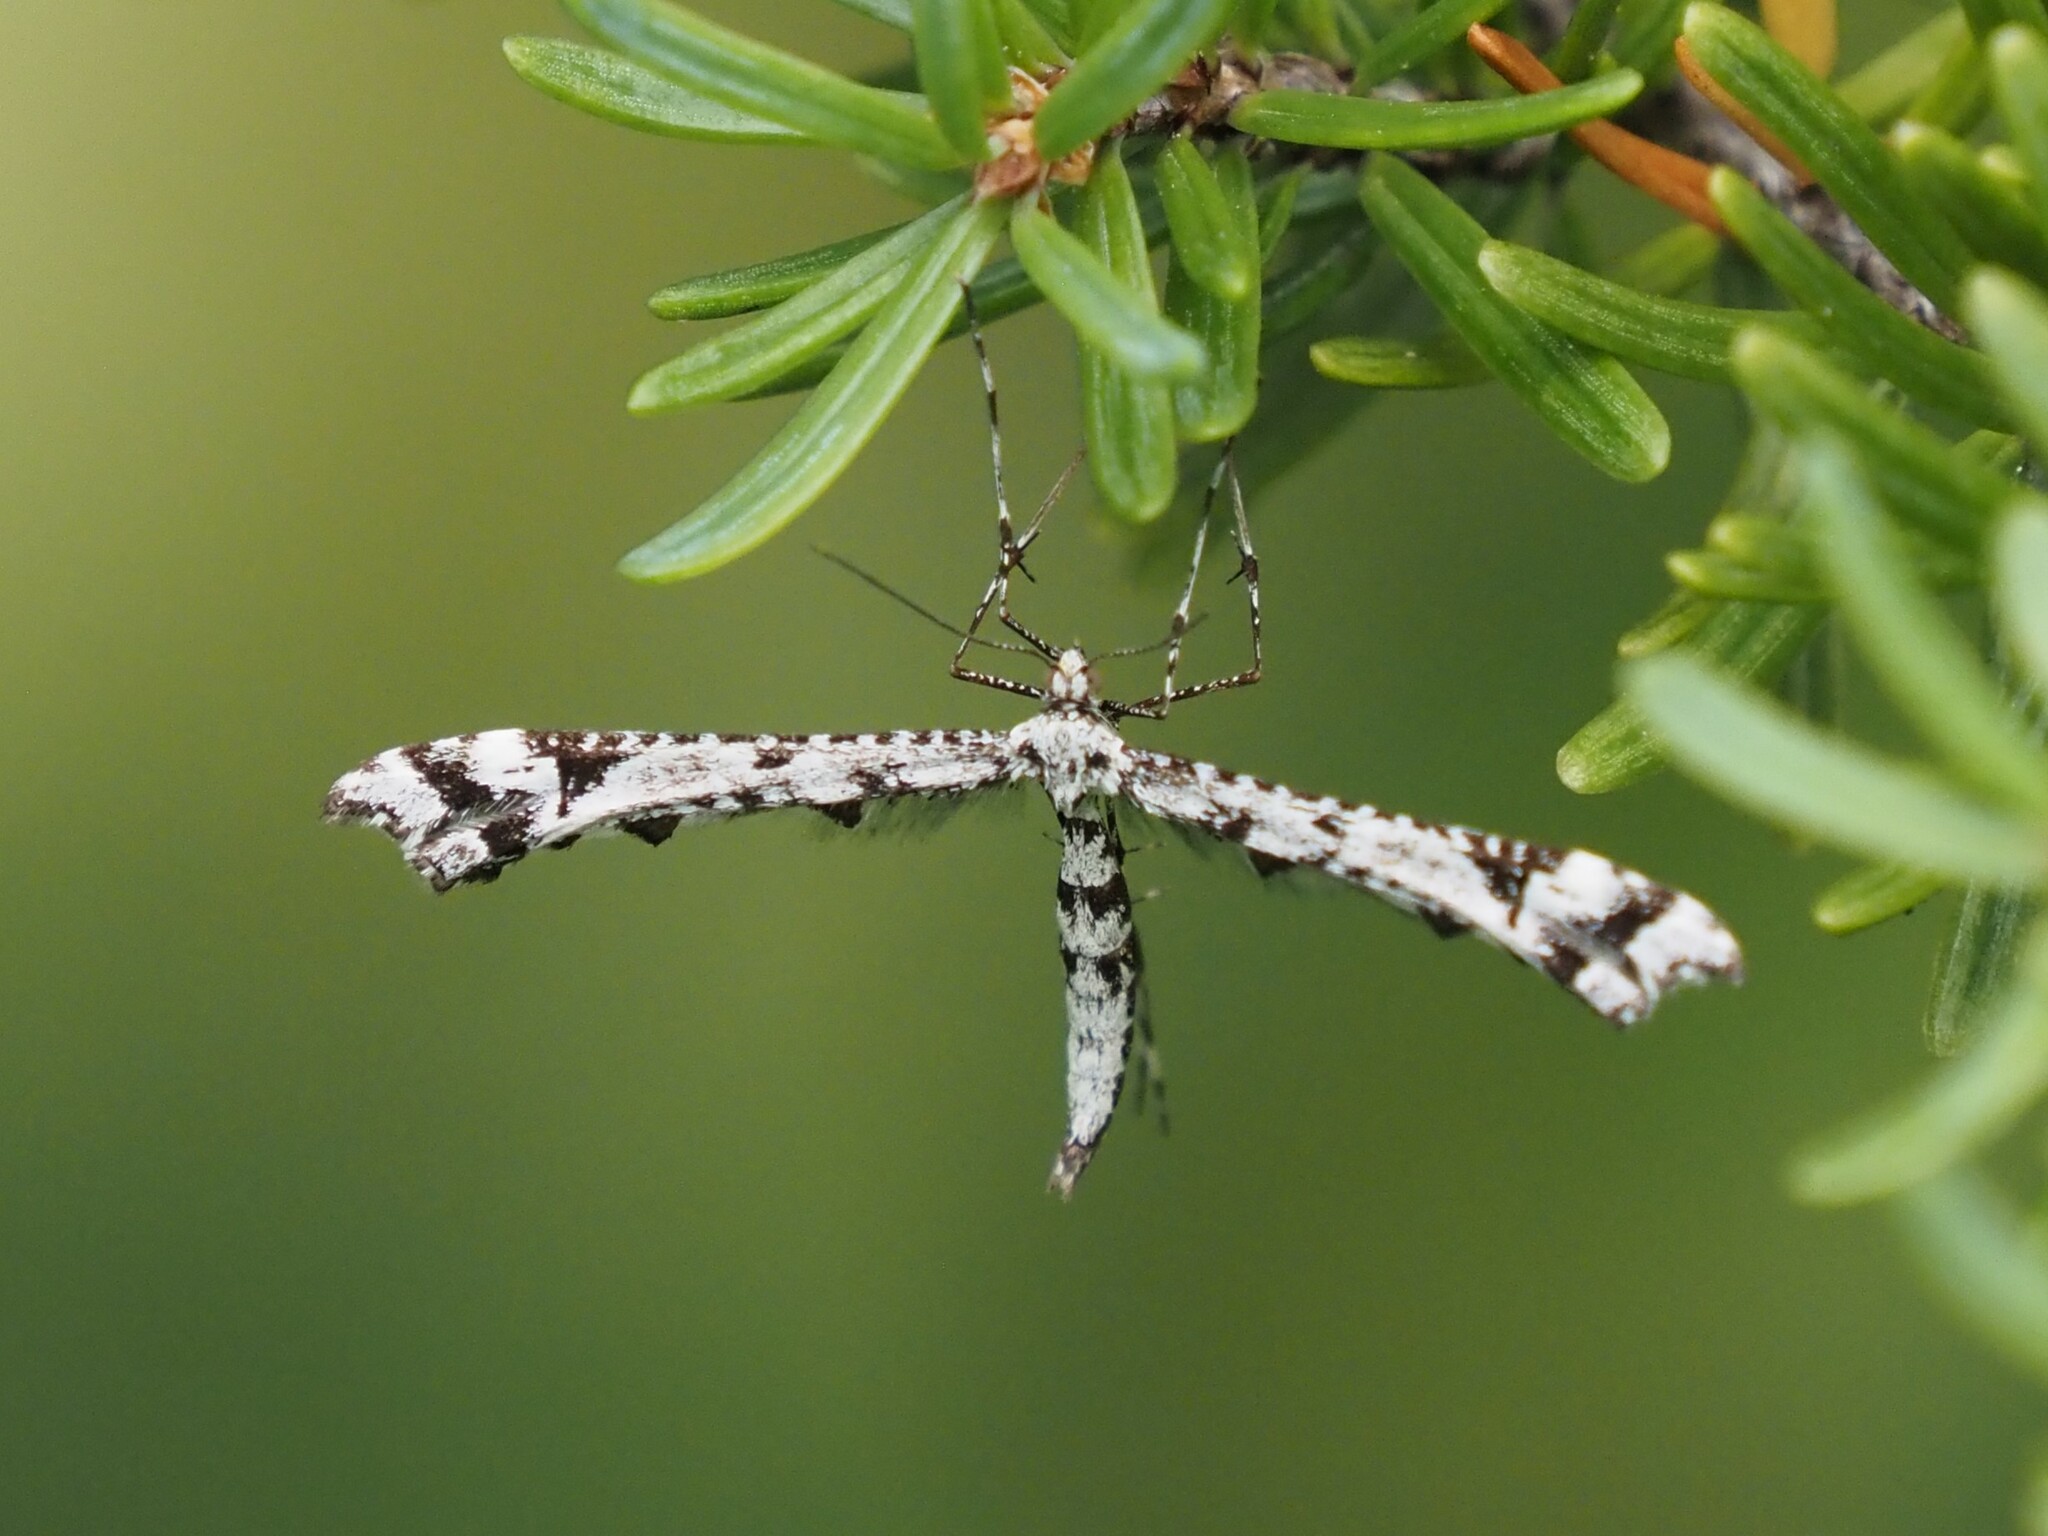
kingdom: Animalia
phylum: Arthropoda
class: Insecta
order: Lepidoptera
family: Pterophoridae
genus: Amblyptilia
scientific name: Amblyptilia pica
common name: Geranium plume moth
